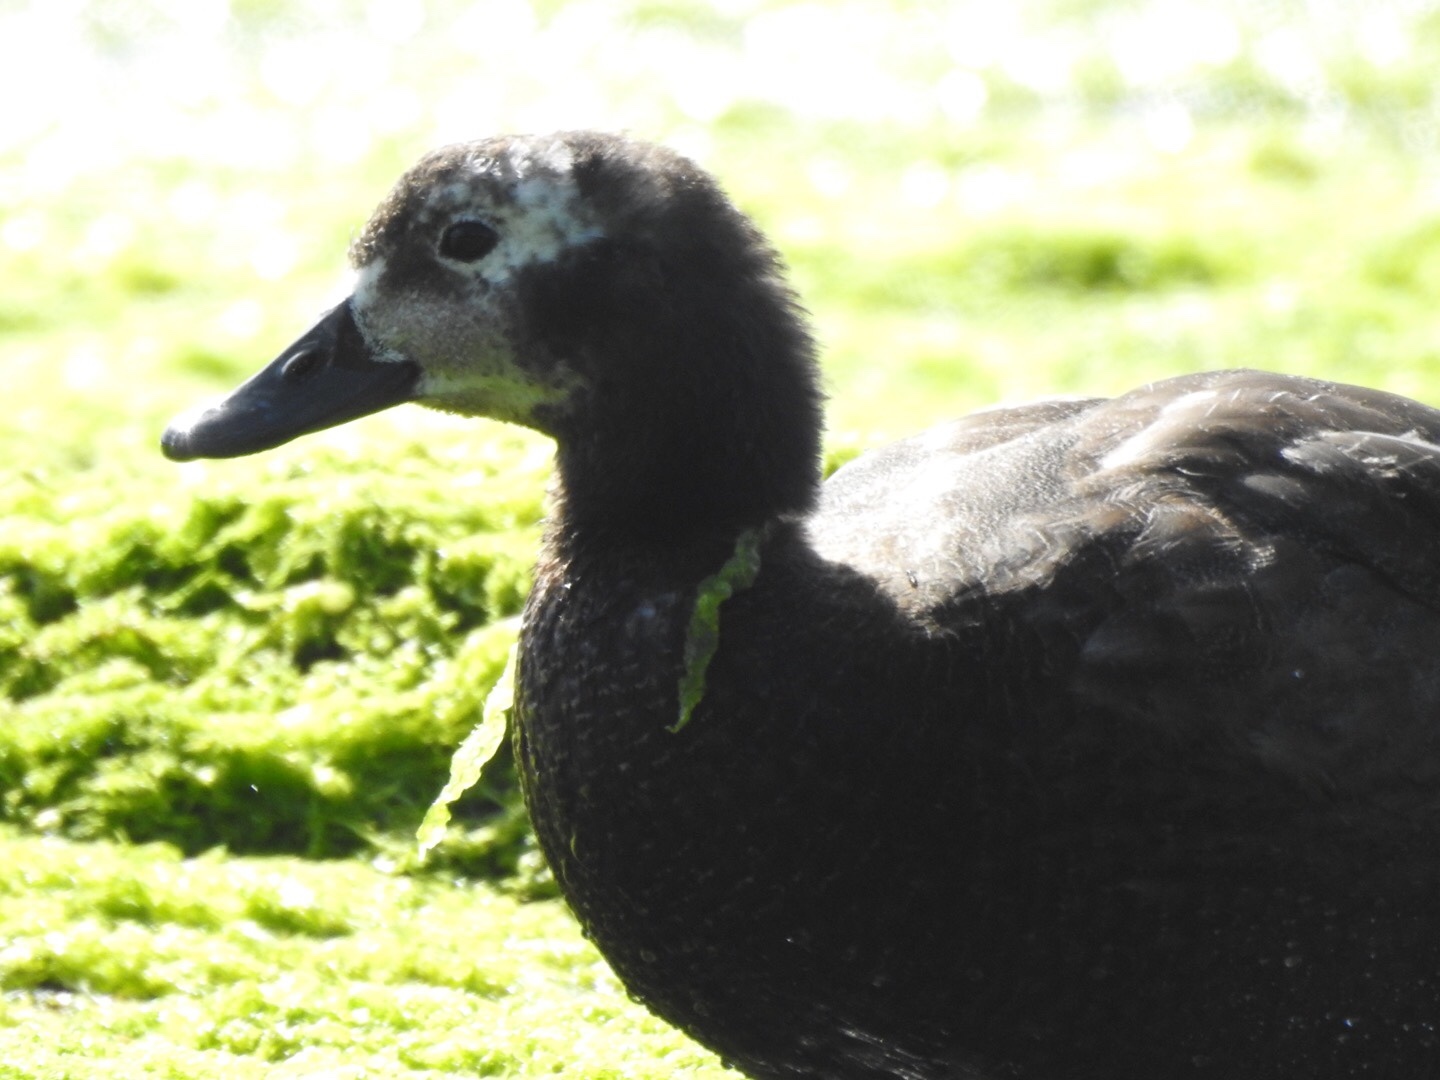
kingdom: Animalia
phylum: Chordata
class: Aves
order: Anseriformes
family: Anatidae
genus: Tadorna
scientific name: Tadorna variegata
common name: Paradise shelduck
